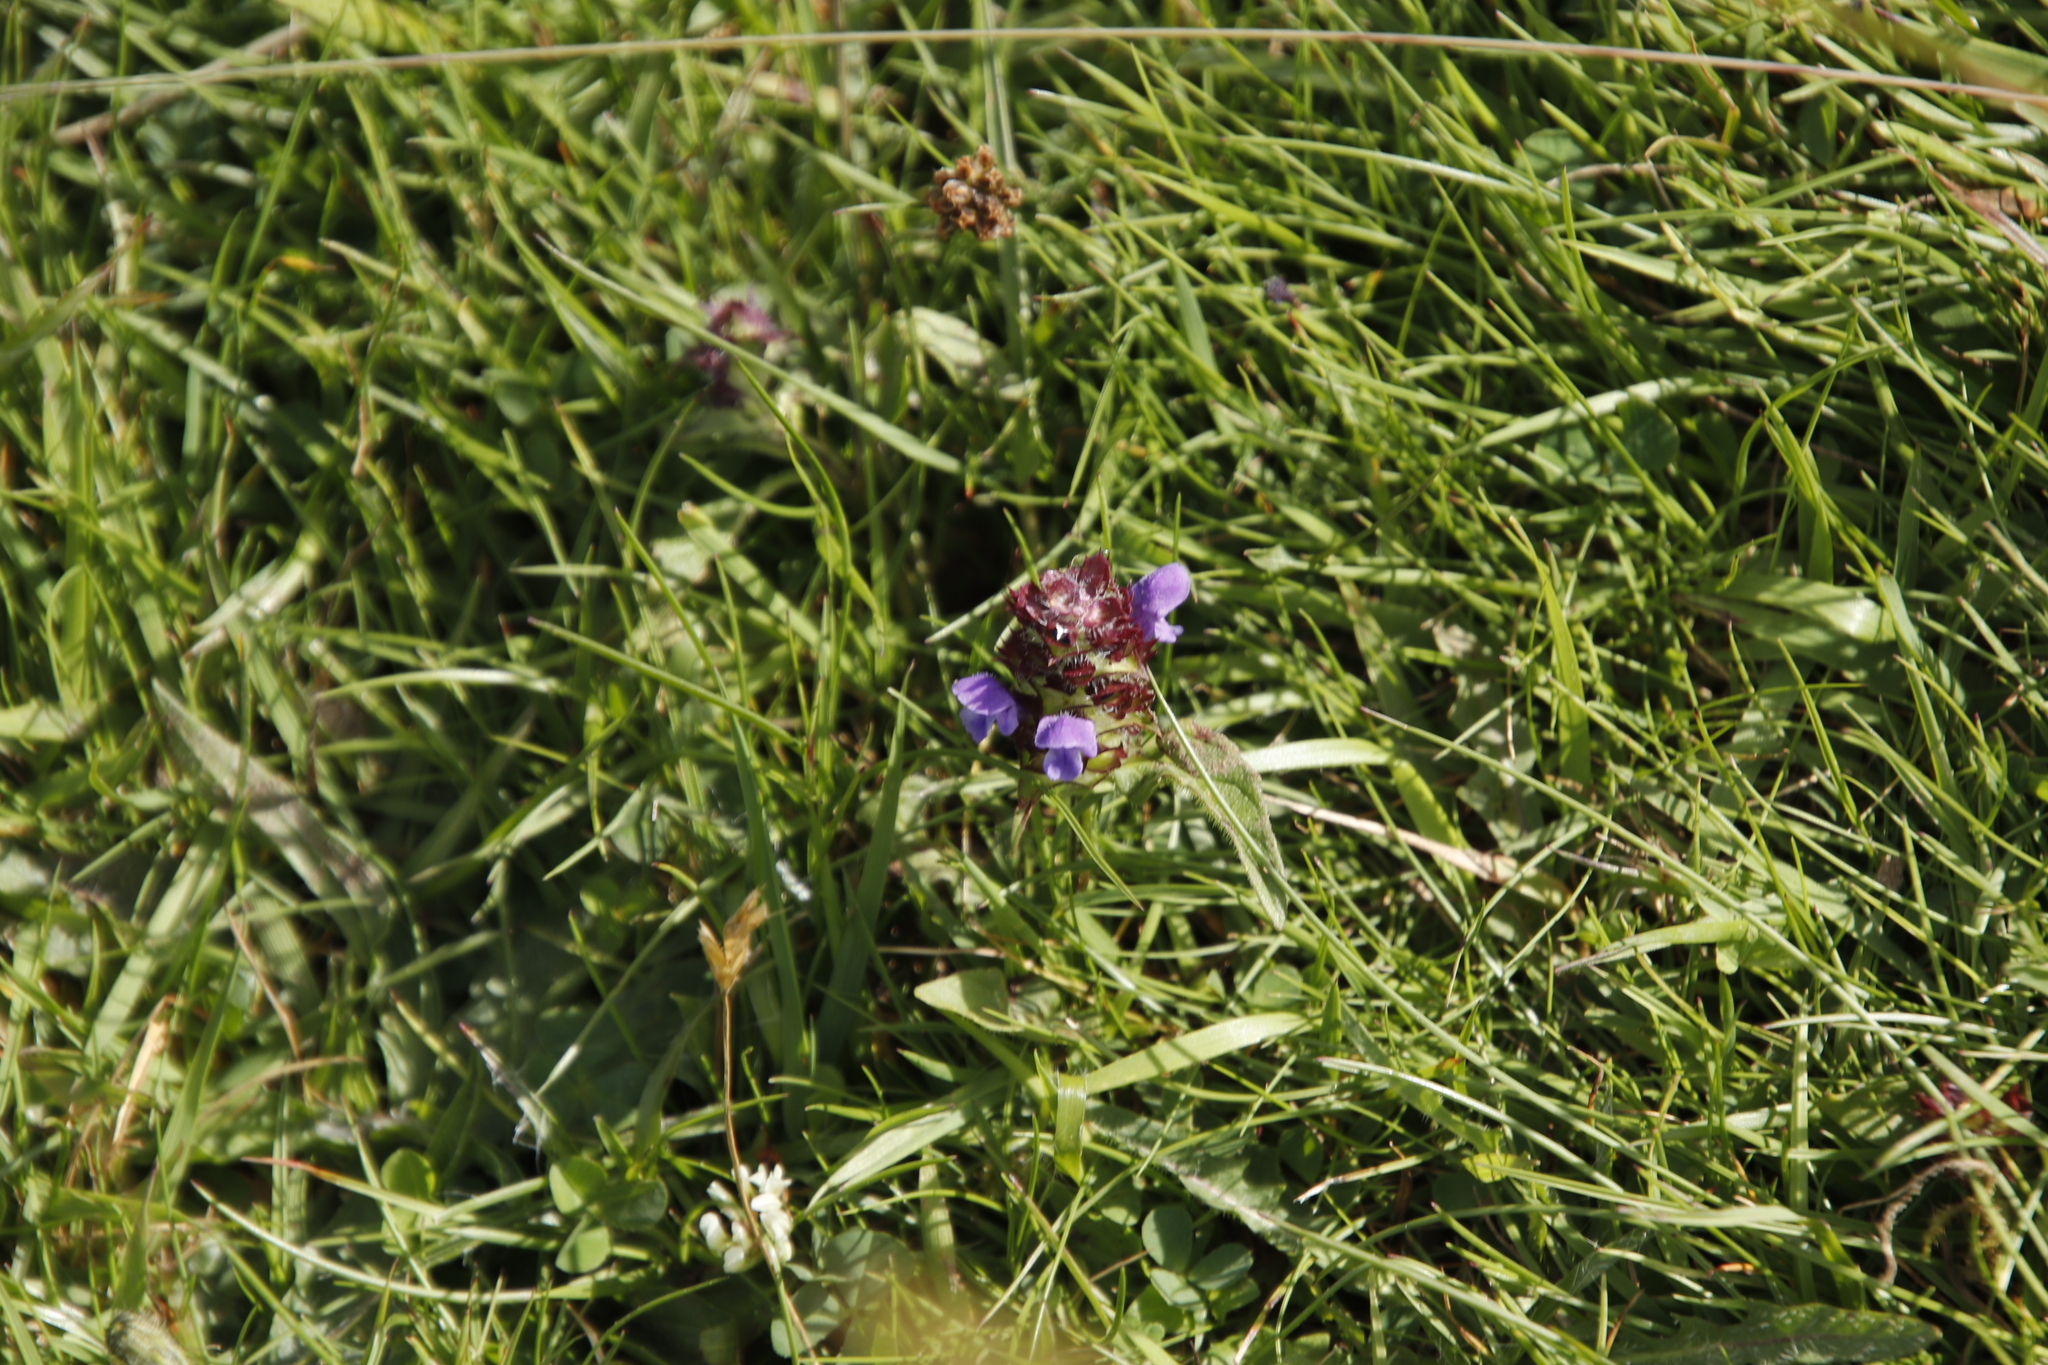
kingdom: Plantae
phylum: Tracheophyta
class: Magnoliopsida
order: Lamiales
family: Lamiaceae
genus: Prunella
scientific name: Prunella vulgaris
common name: Heal-all
